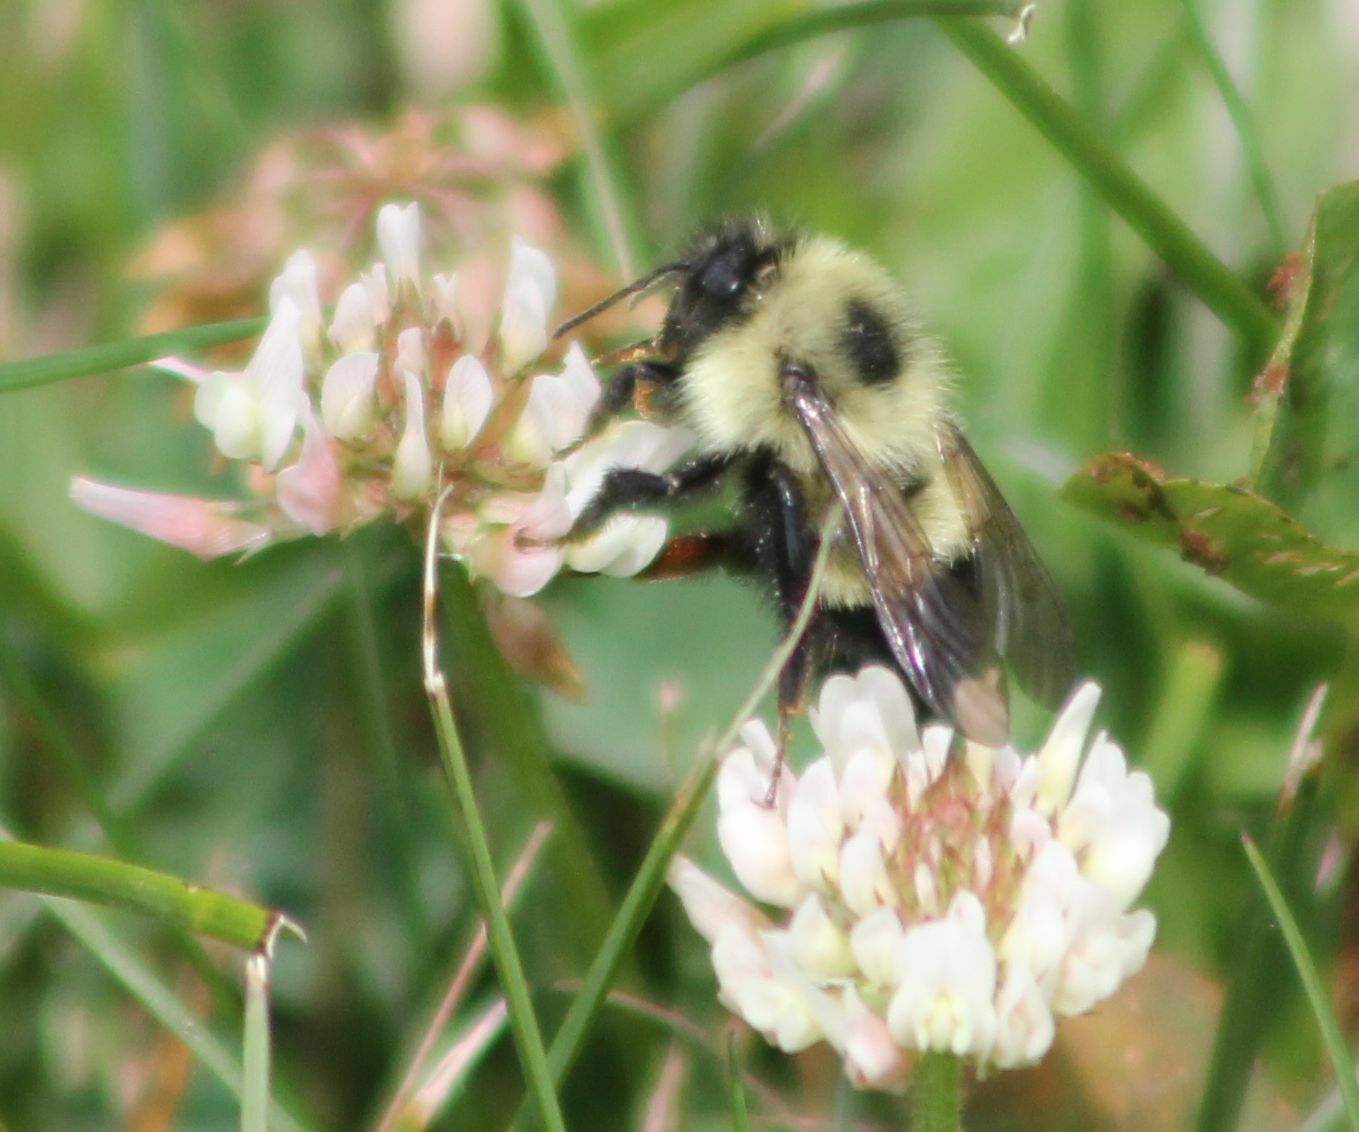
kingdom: Animalia
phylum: Arthropoda
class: Insecta
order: Hymenoptera
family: Apidae
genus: Bombus
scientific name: Bombus vagans
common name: Half-black bumble bee
